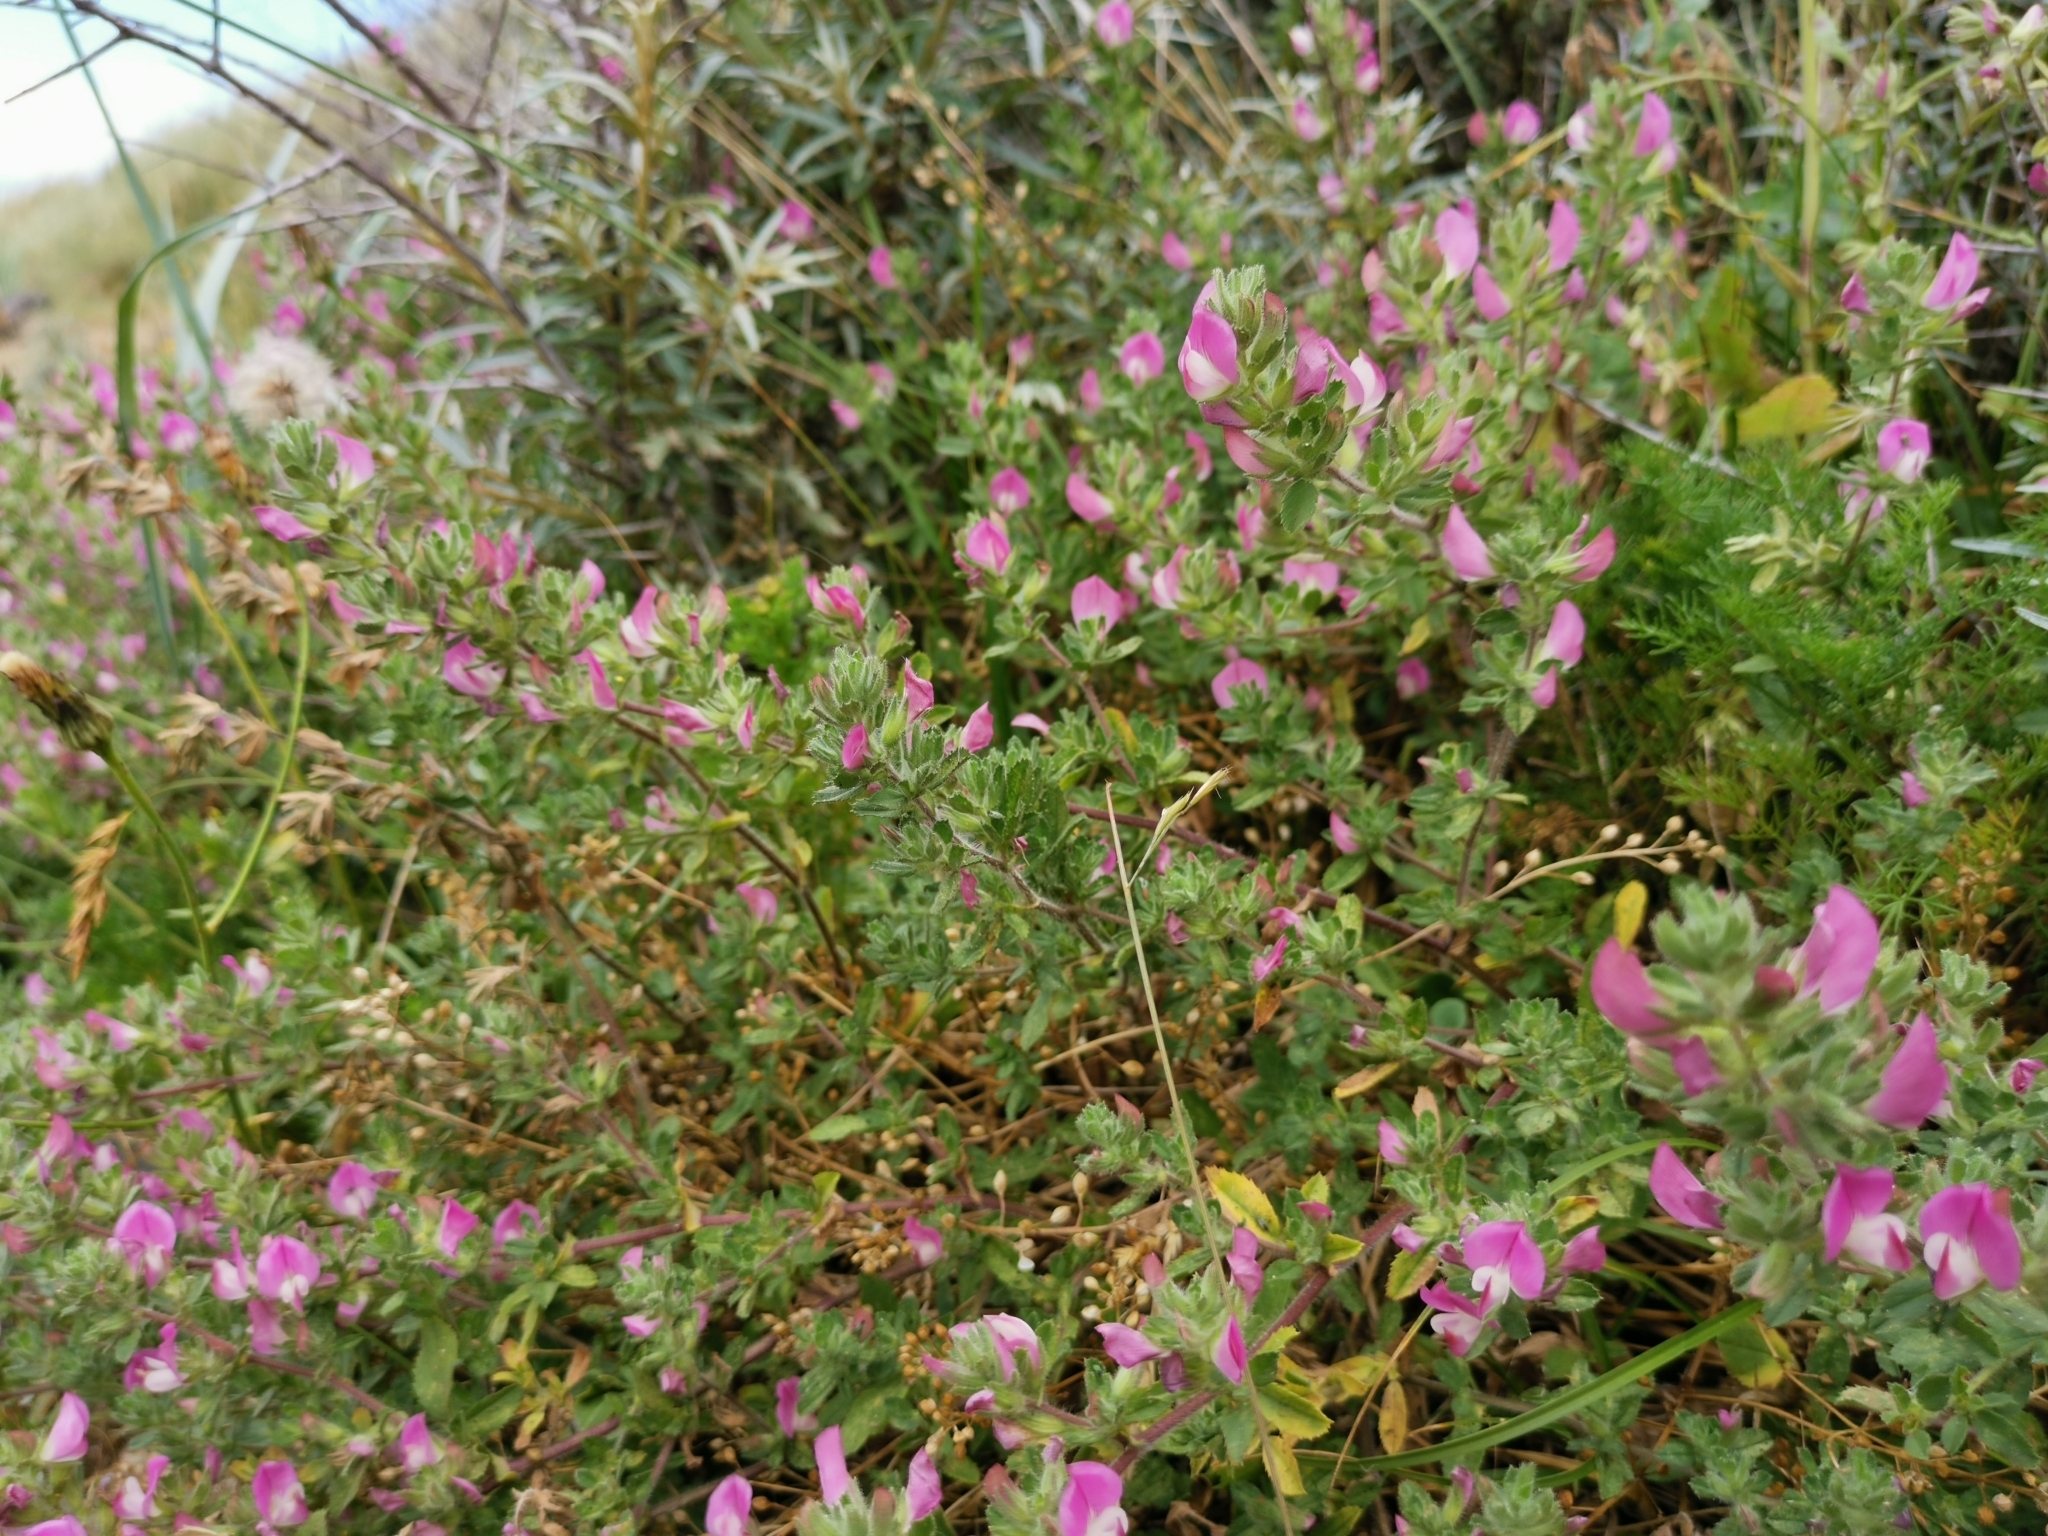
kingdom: Plantae
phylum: Tracheophyta
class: Magnoliopsida
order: Fabales
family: Fabaceae
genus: Ononis
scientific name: Ononis spinosa
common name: Spiny restharrow
